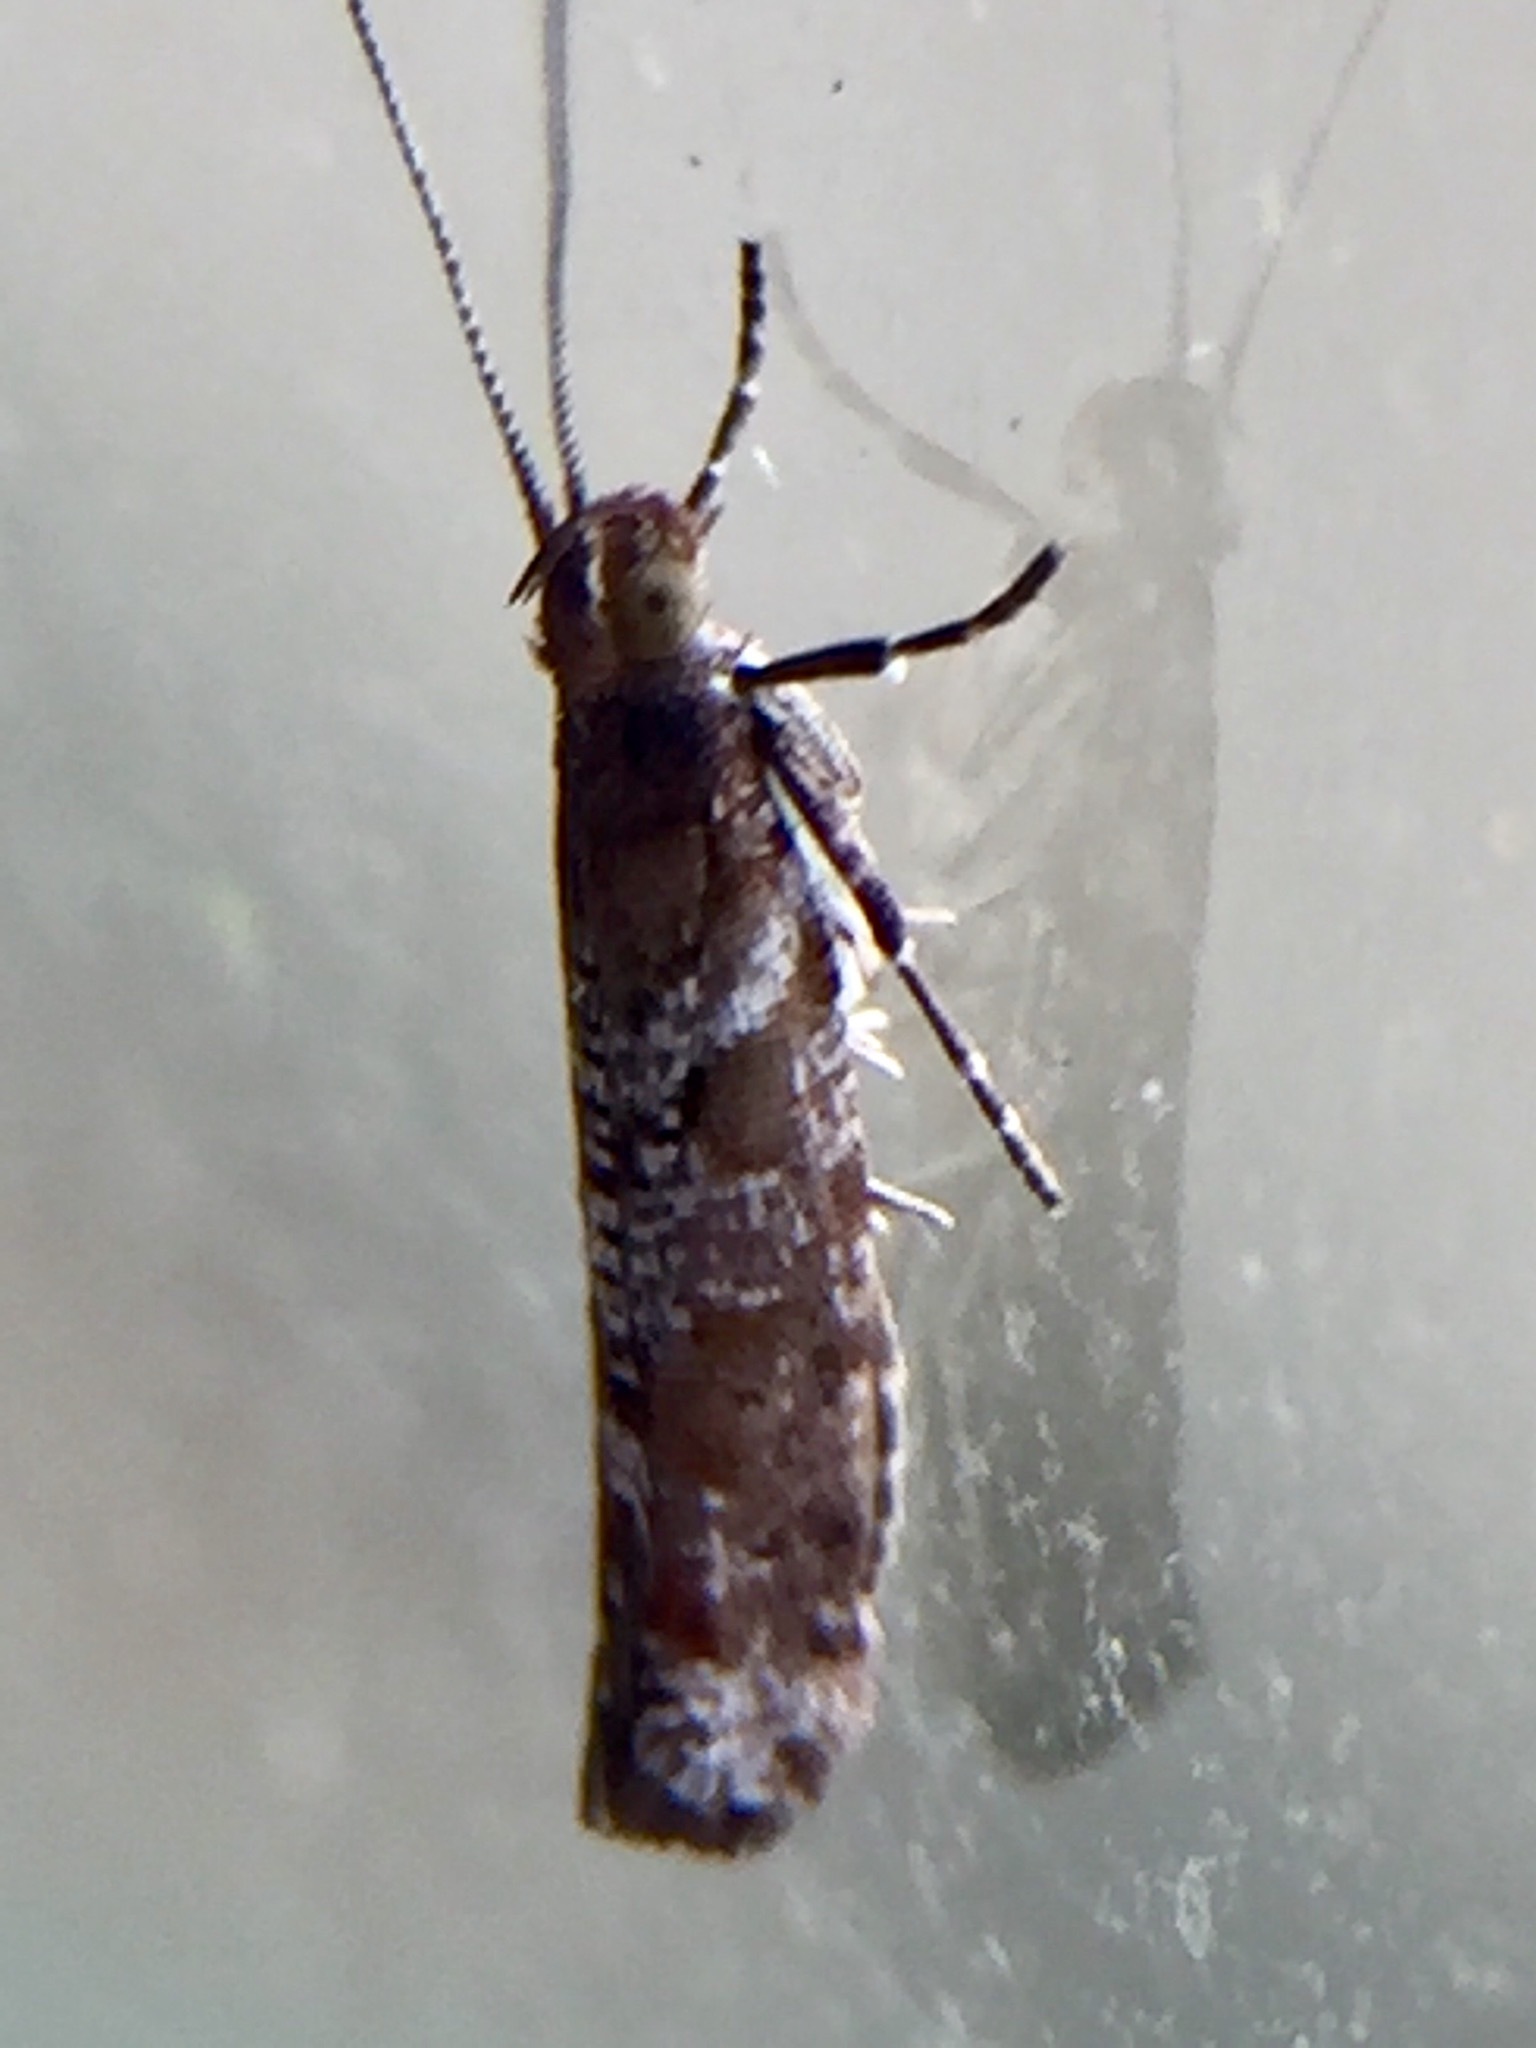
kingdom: Animalia
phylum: Arthropoda
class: Insecta
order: Lepidoptera
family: Glyphipterigidae
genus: Chrysorthenches
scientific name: Chrysorthenches drosochalca
